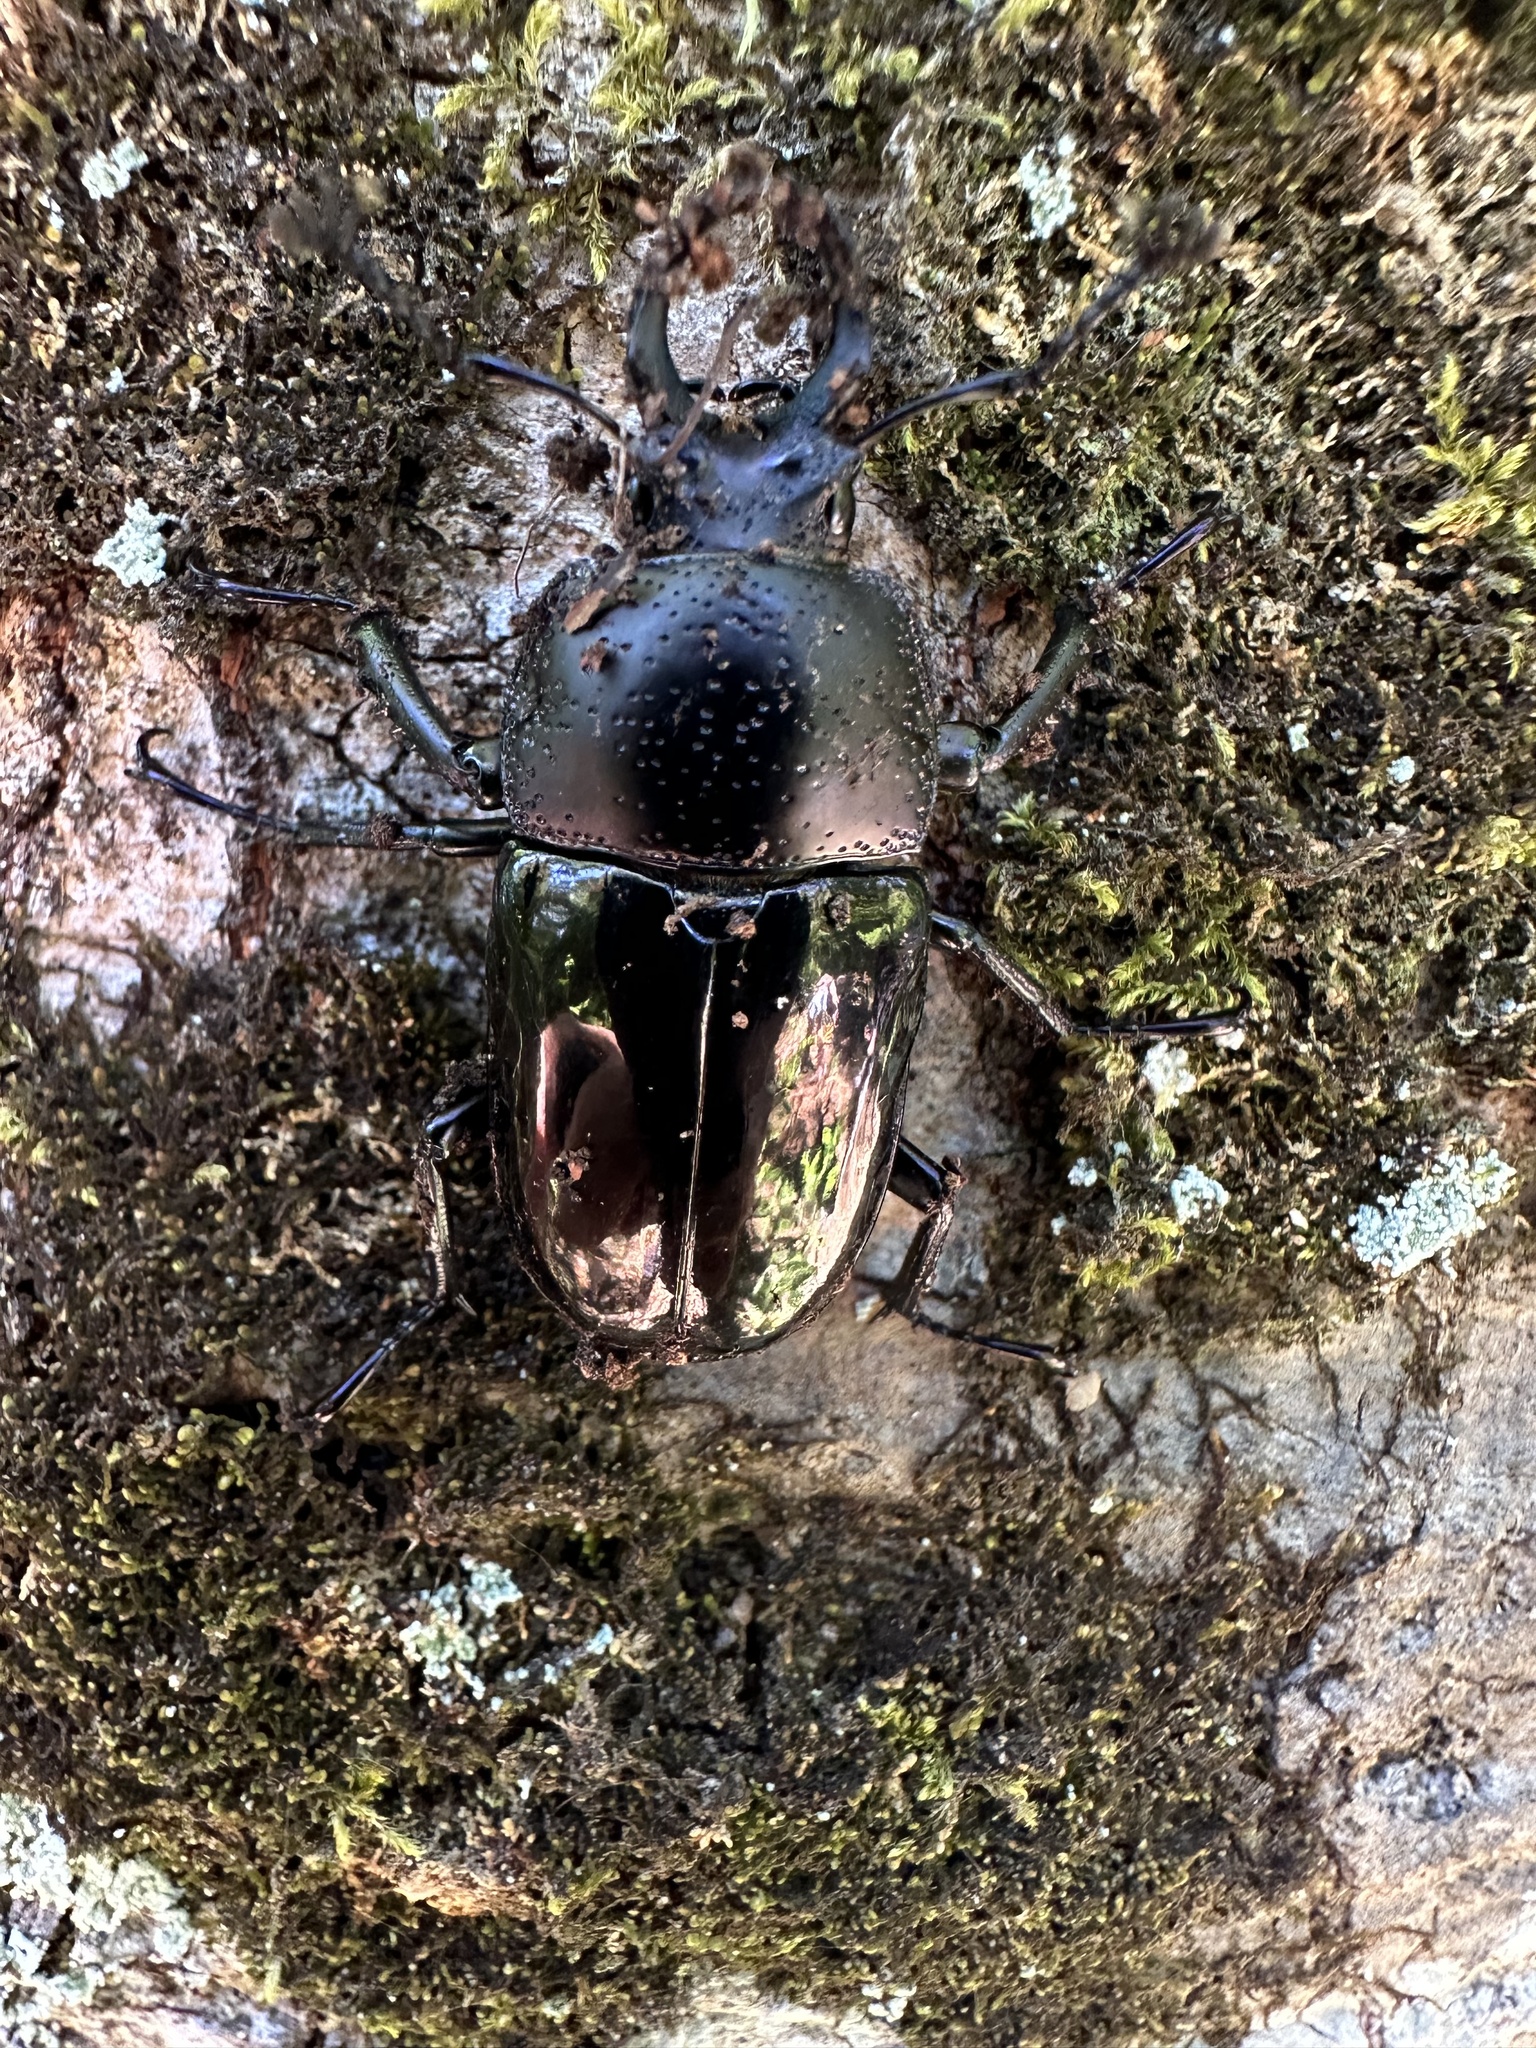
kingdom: Animalia
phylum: Arthropoda
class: Insecta
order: Coleoptera
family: Lucanidae
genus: Streptocerus
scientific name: Streptocerus speciosus
